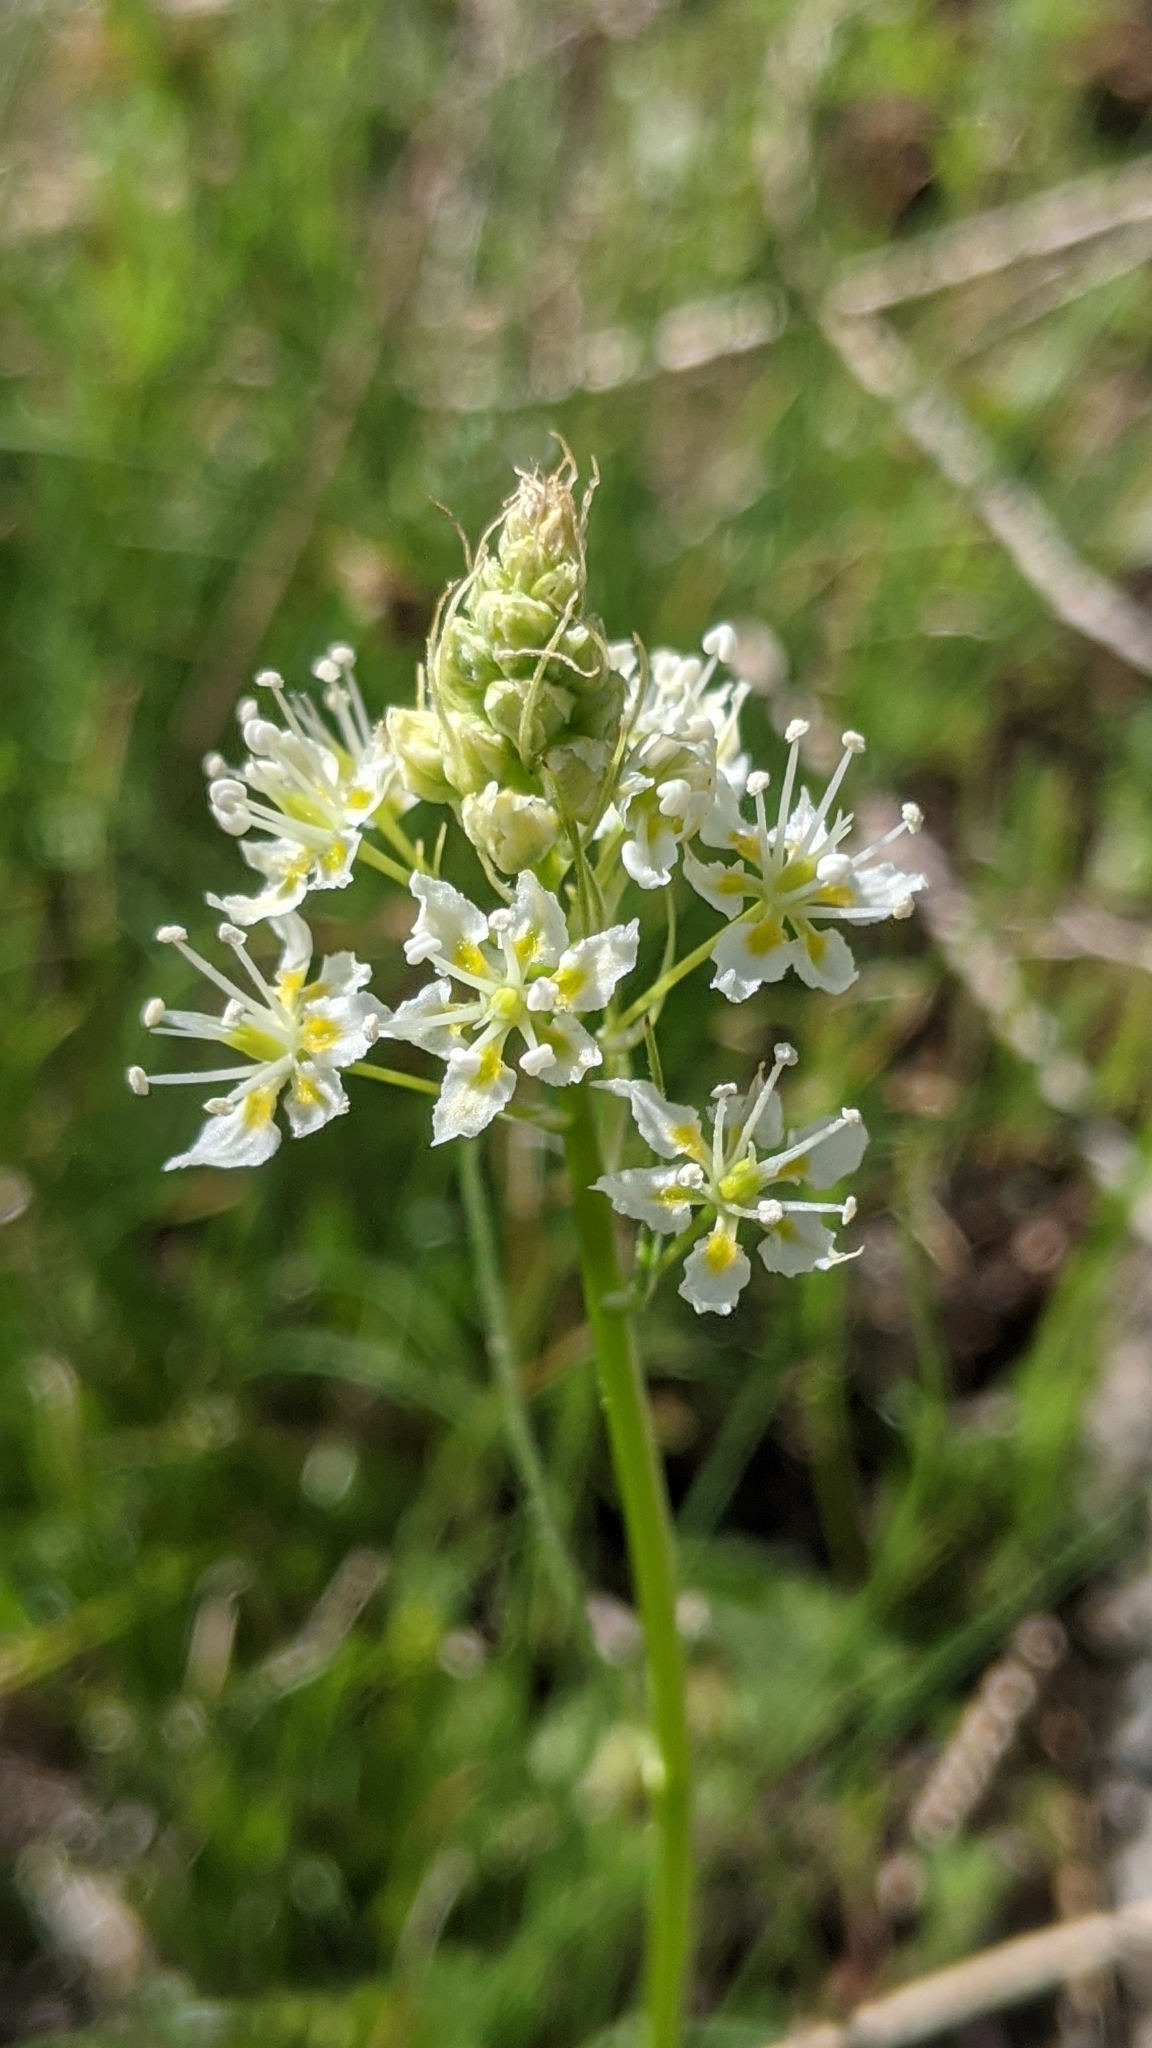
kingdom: Plantae
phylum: Tracheophyta
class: Liliopsida
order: Liliales
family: Melanthiaceae
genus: Toxicoscordion
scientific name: Toxicoscordion venenosum
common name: Meadow death camas
